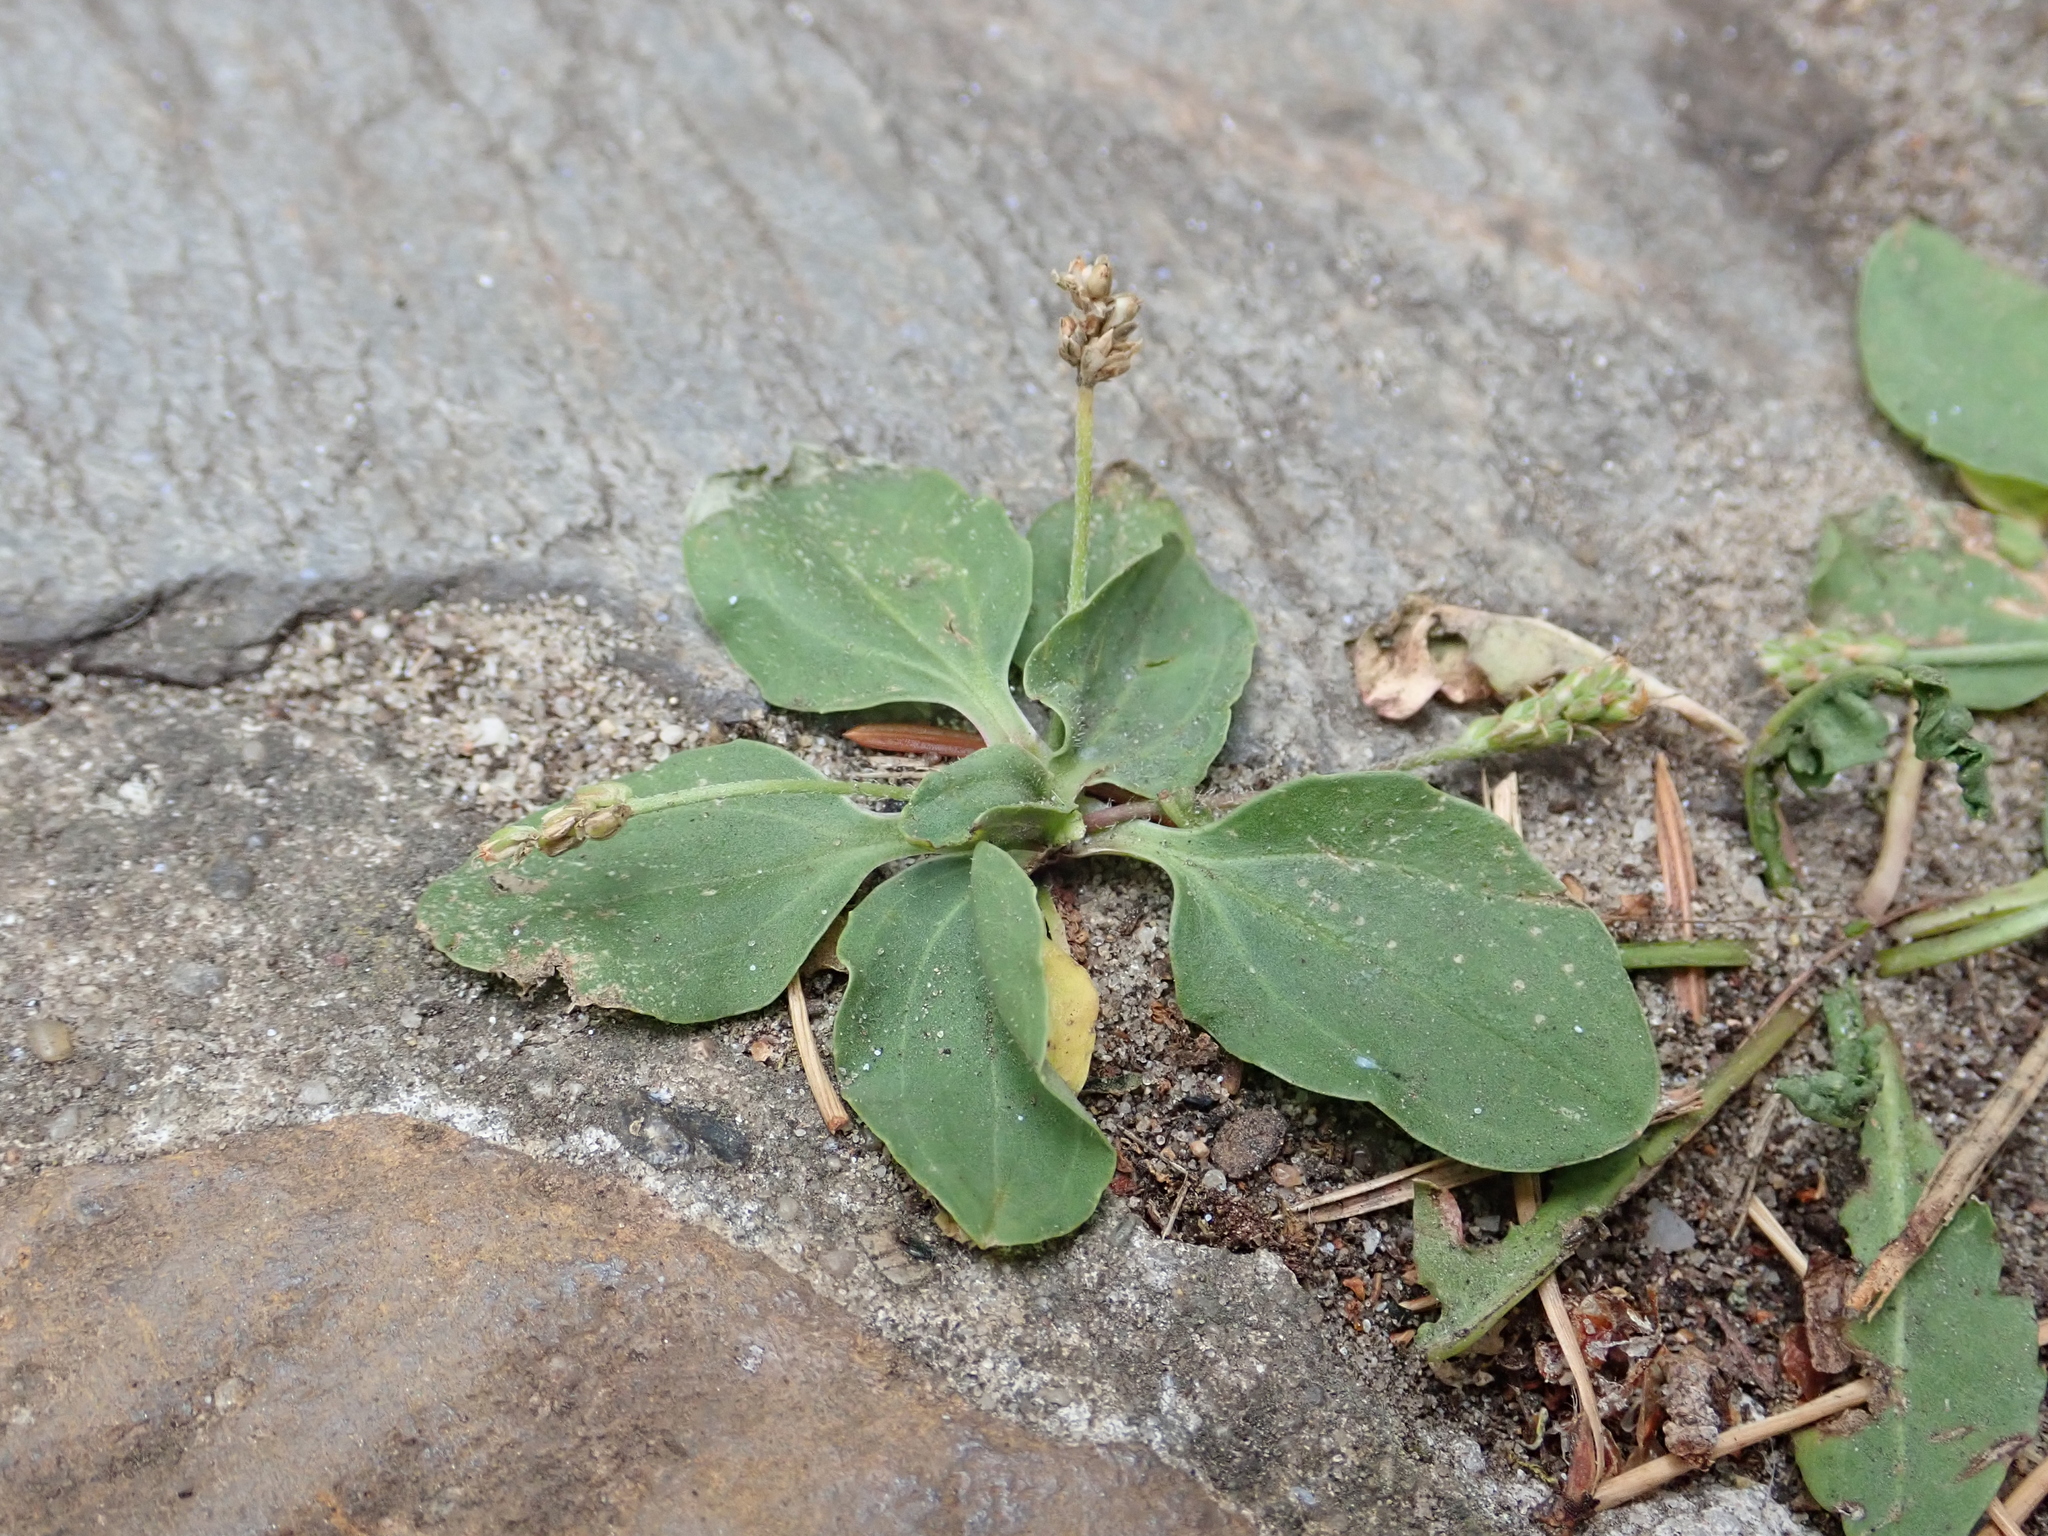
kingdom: Plantae
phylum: Tracheophyta
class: Magnoliopsida
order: Lamiales
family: Plantaginaceae
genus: Plantago
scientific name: Plantago major
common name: Common plantain
